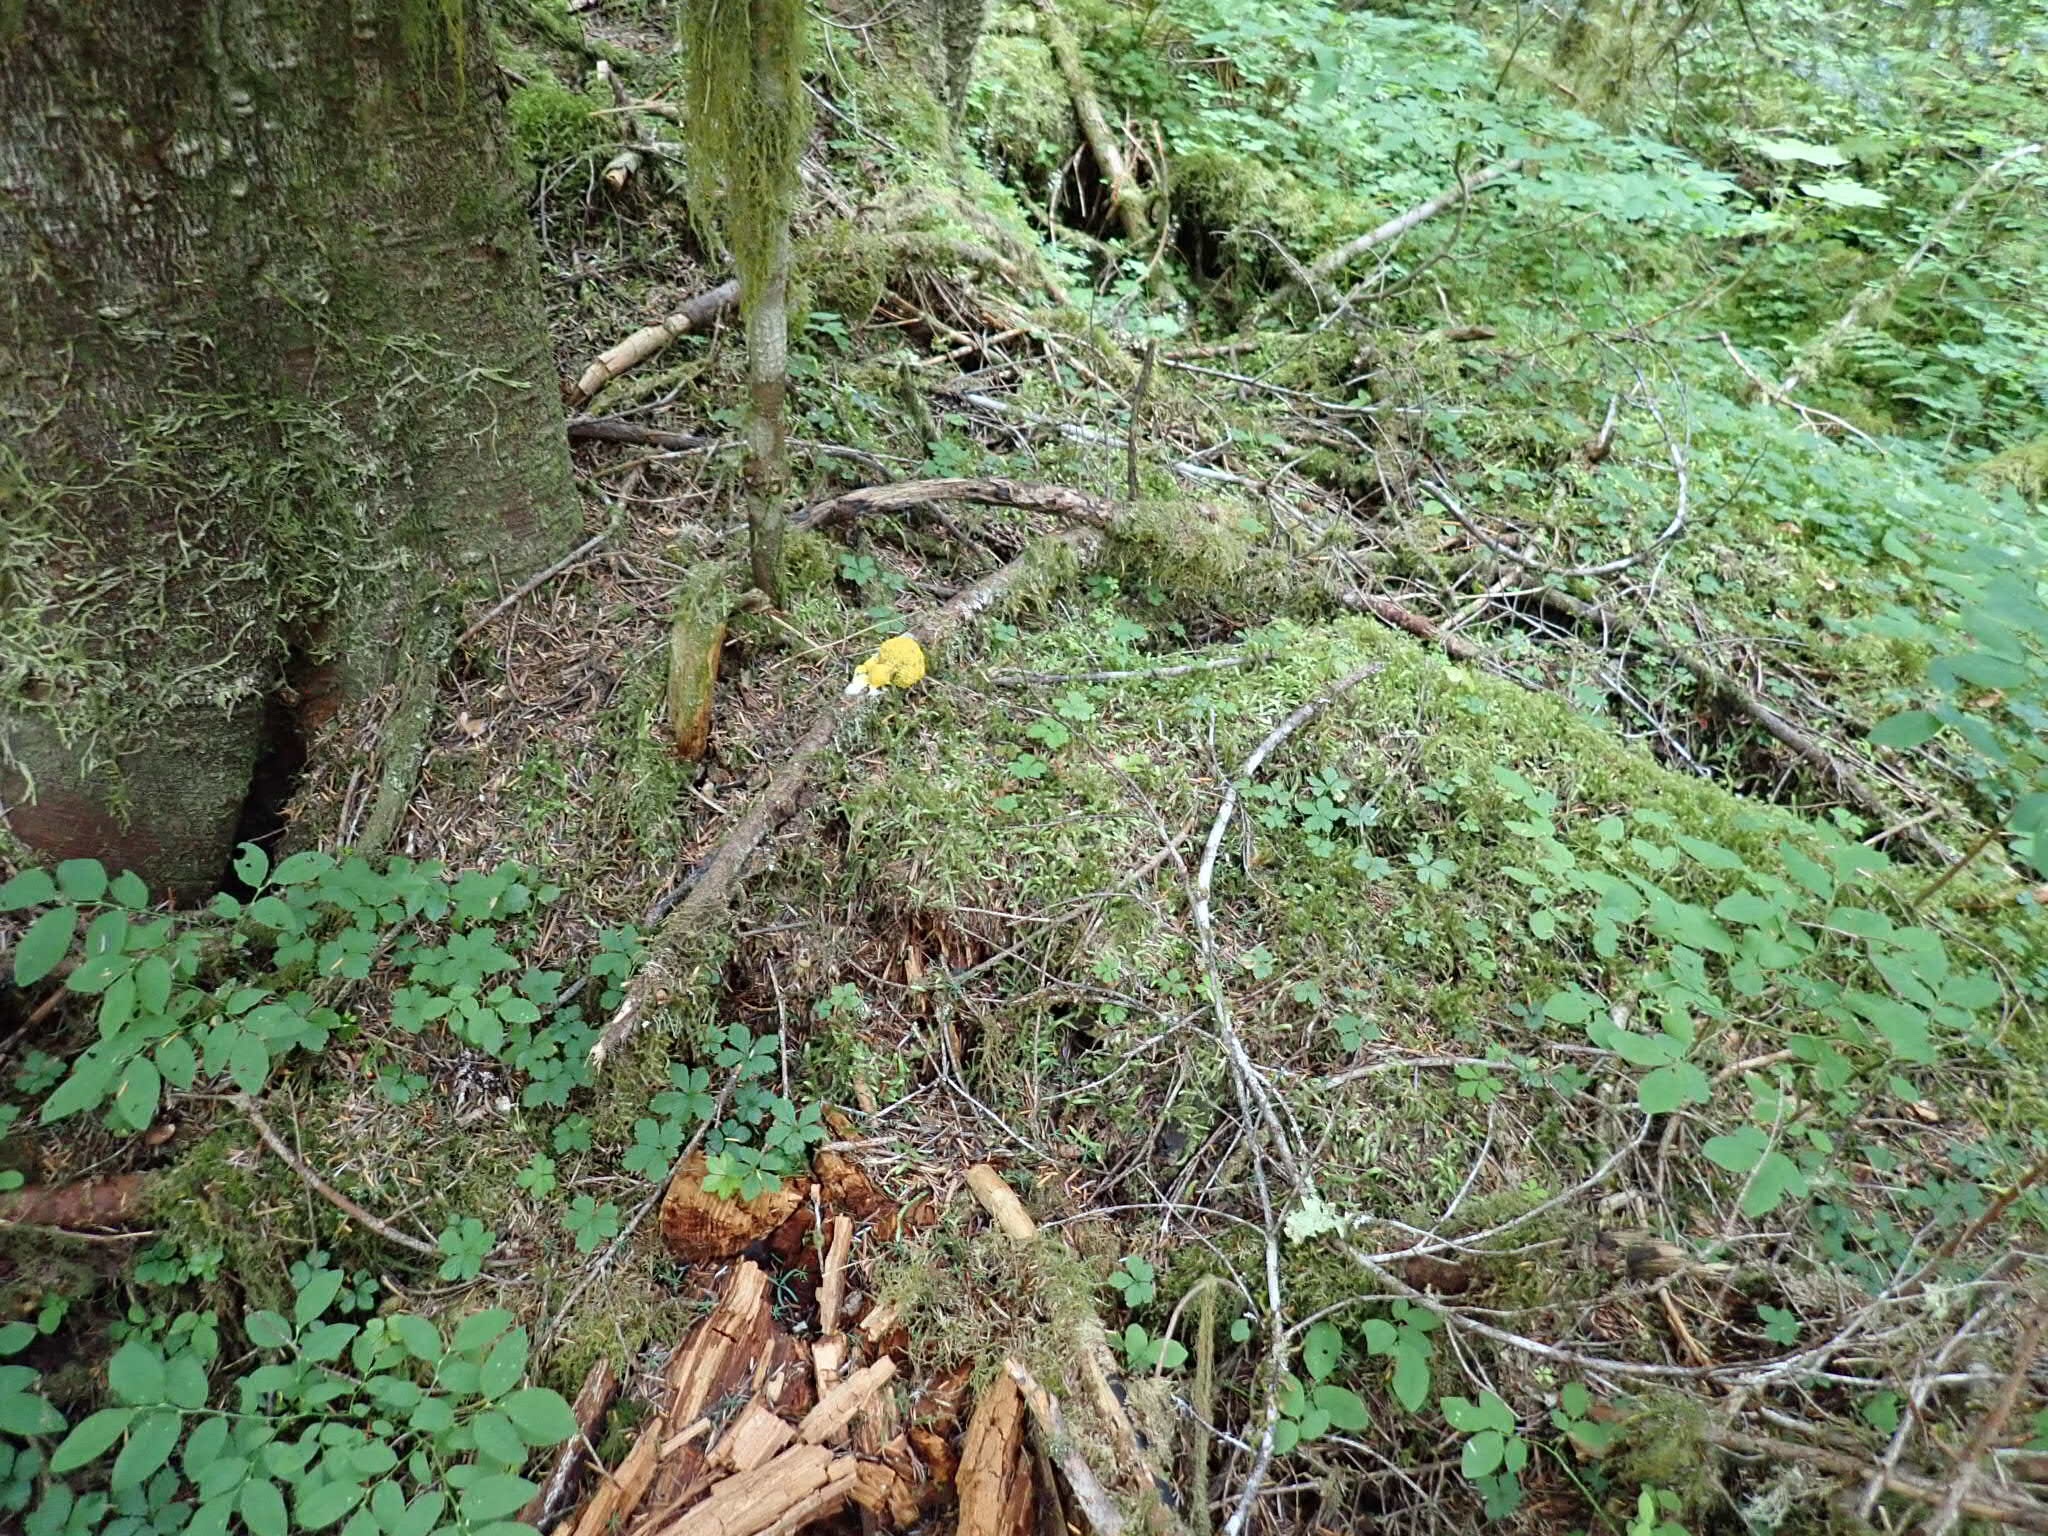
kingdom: Protozoa
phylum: Mycetozoa
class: Myxomycetes
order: Physarales
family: Physaraceae
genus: Fuligo
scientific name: Fuligo septica
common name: Dog vomit slime mold
